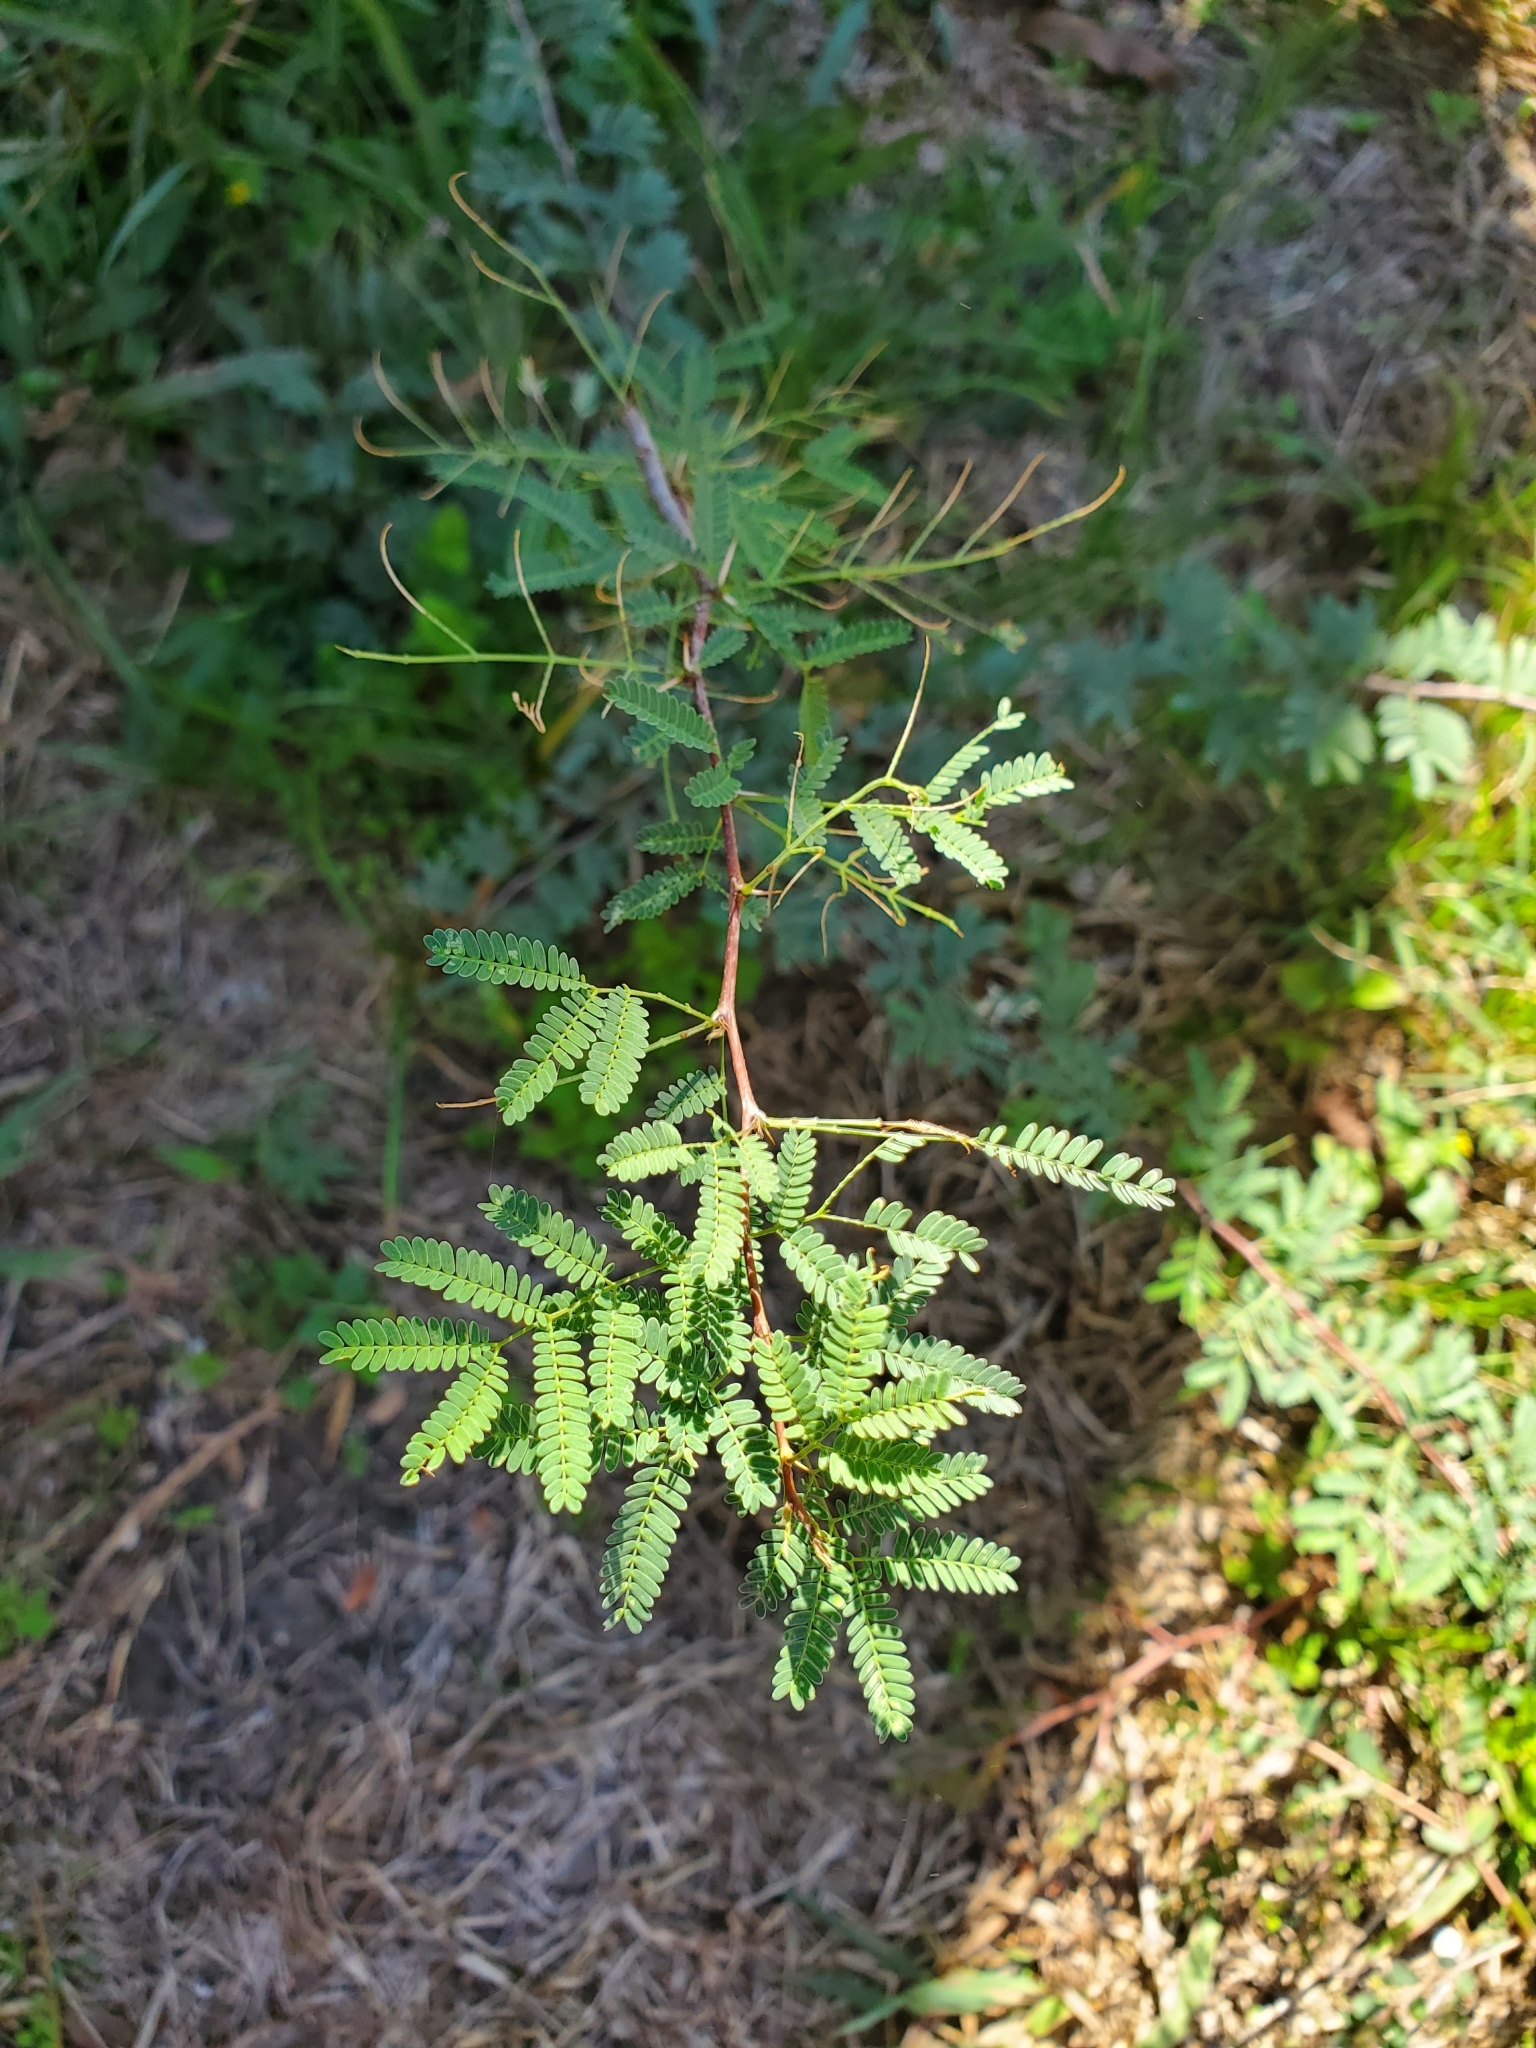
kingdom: Plantae
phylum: Tracheophyta
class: Magnoliopsida
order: Fabales
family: Fabaceae
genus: Vachellia
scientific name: Vachellia farnesiana
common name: Sweet acacia
